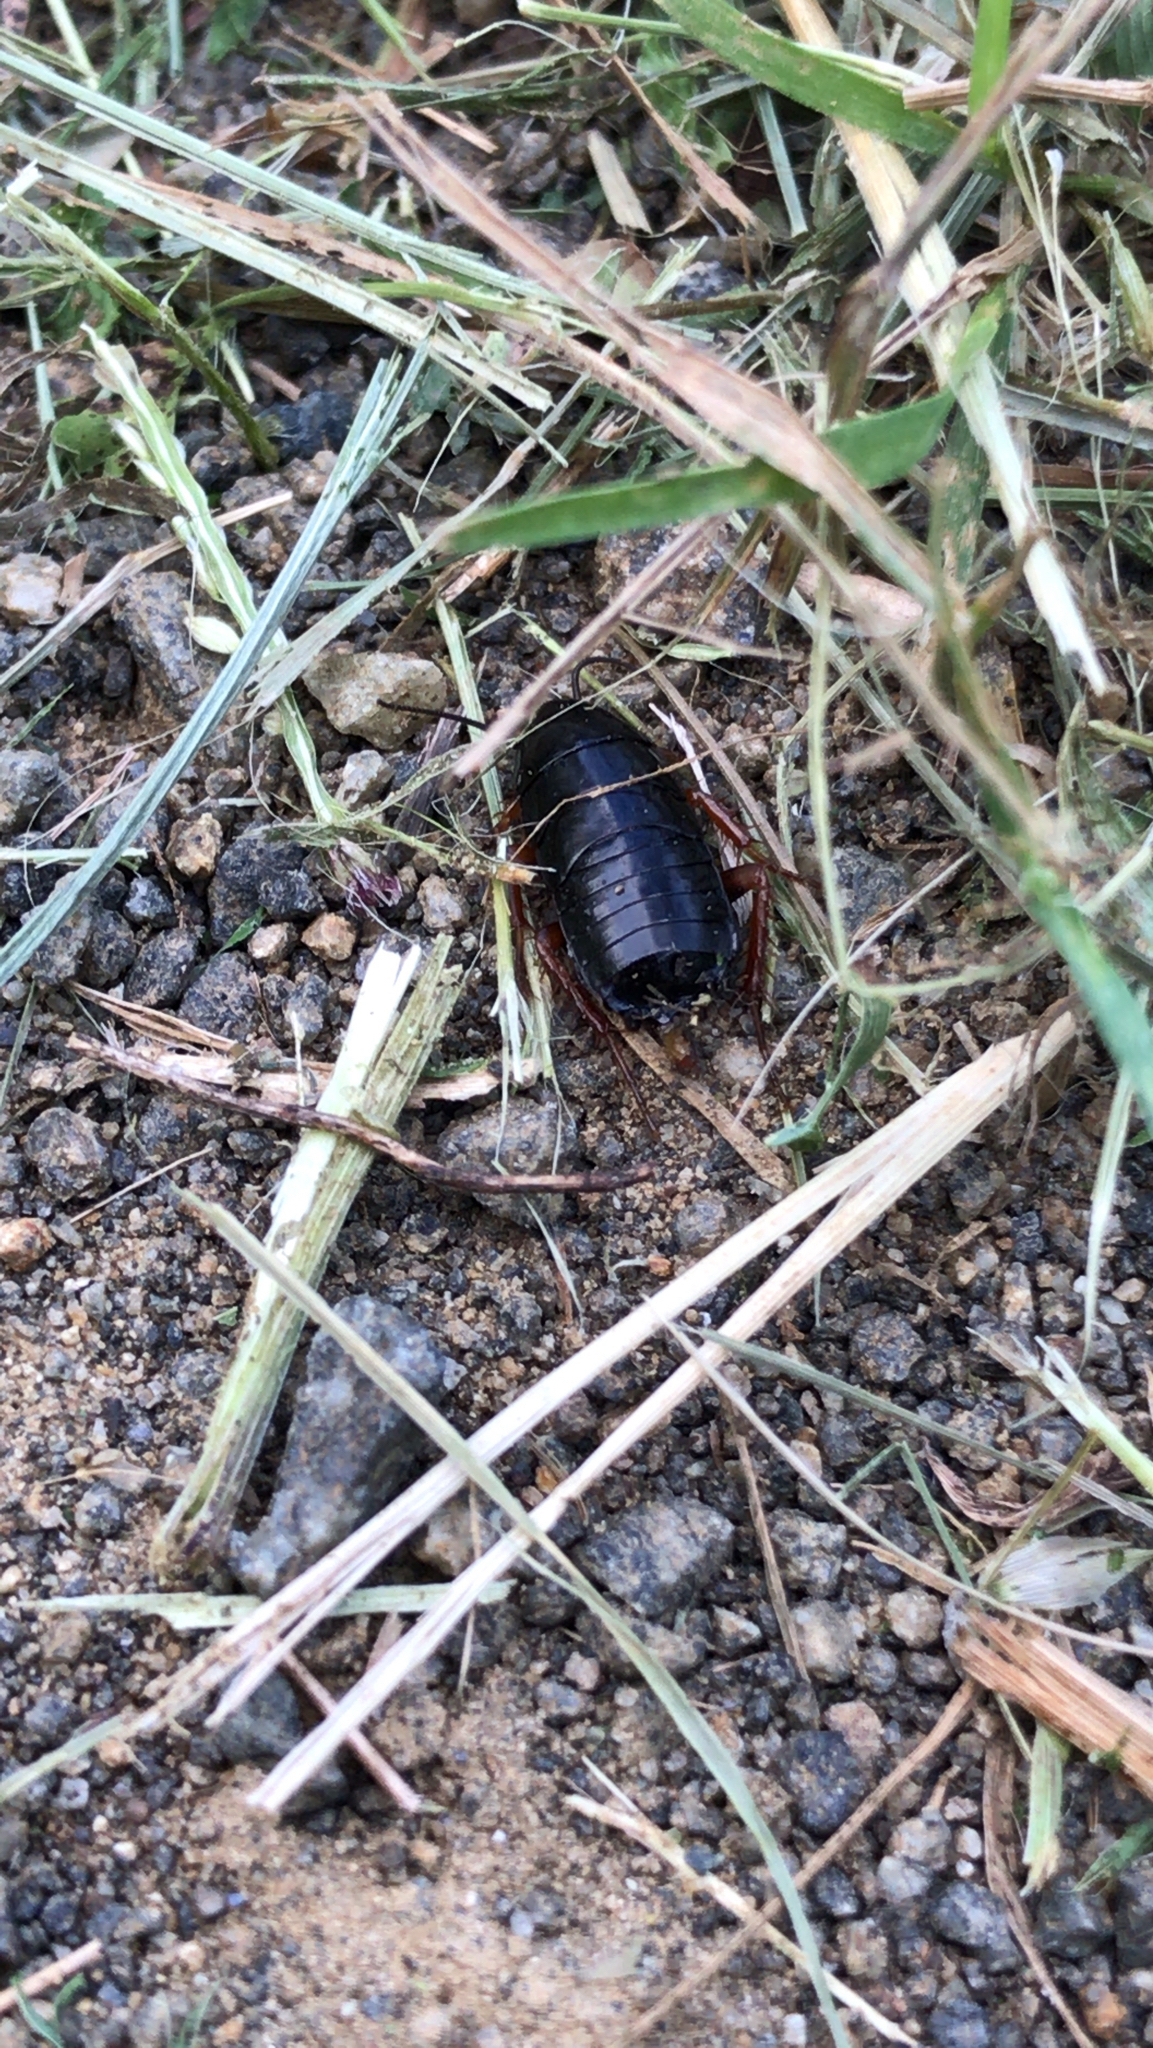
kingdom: Animalia
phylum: Arthropoda
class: Insecta
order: Blattodea
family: Ectobiidae
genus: Ischnoptera
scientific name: Ischnoptera deropeltiformis
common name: Dark wood cockroach
